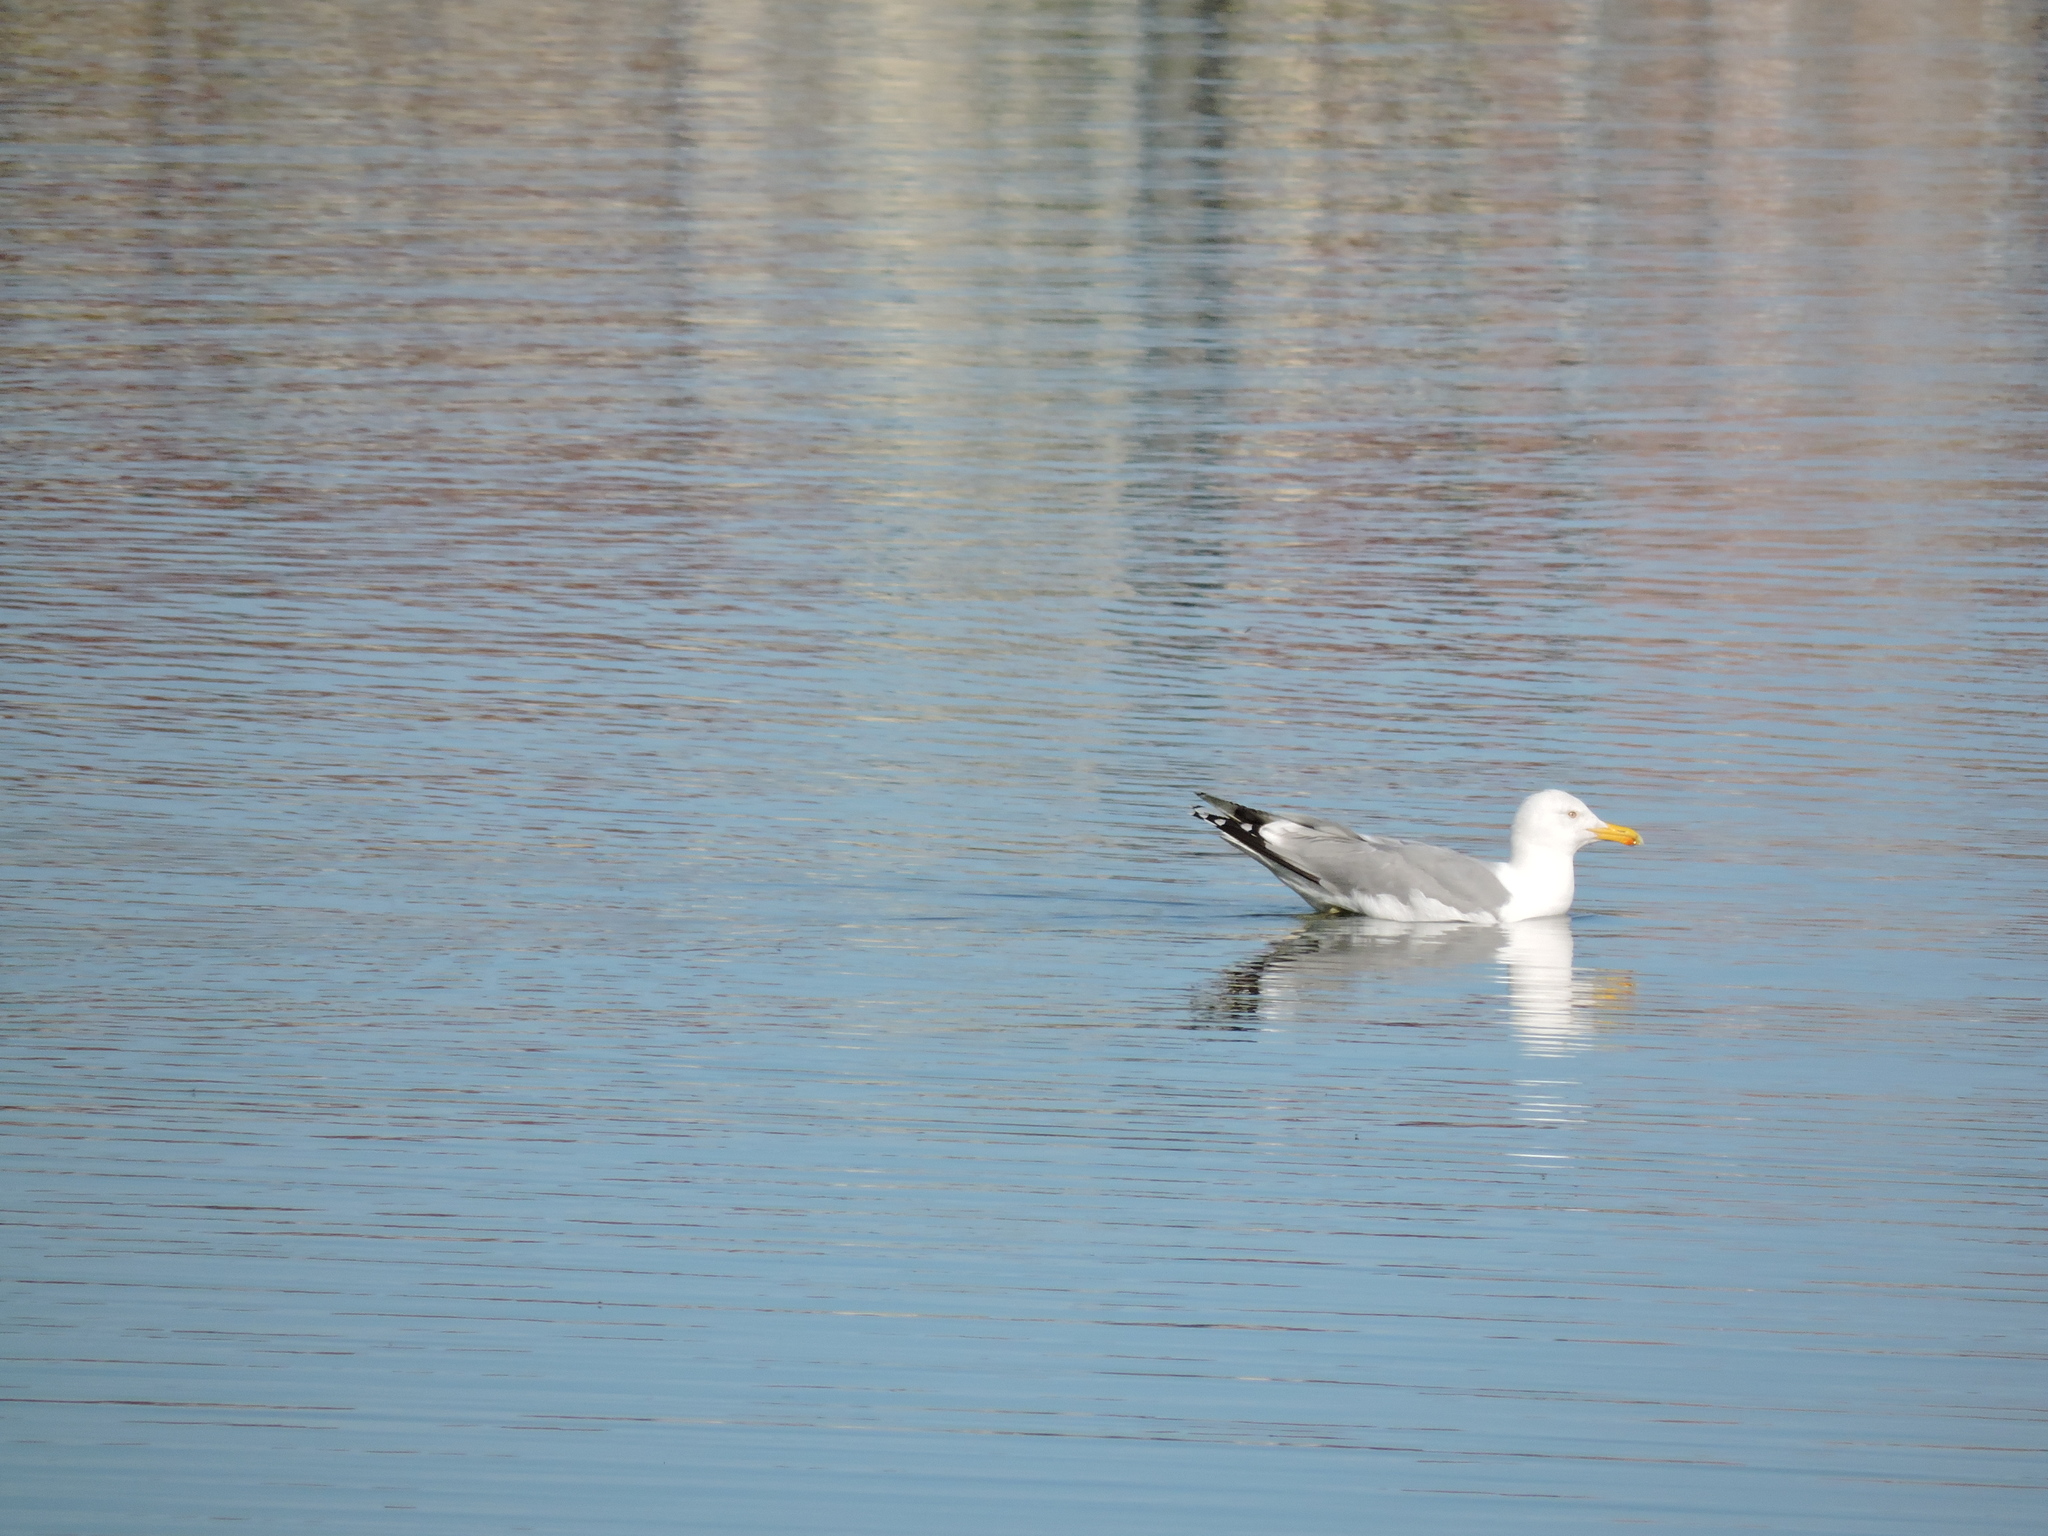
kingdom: Animalia
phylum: Chordata
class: Aves
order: Charadriiformes
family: Laridae
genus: Larus
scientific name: Larus argentatus
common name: Herring gull
